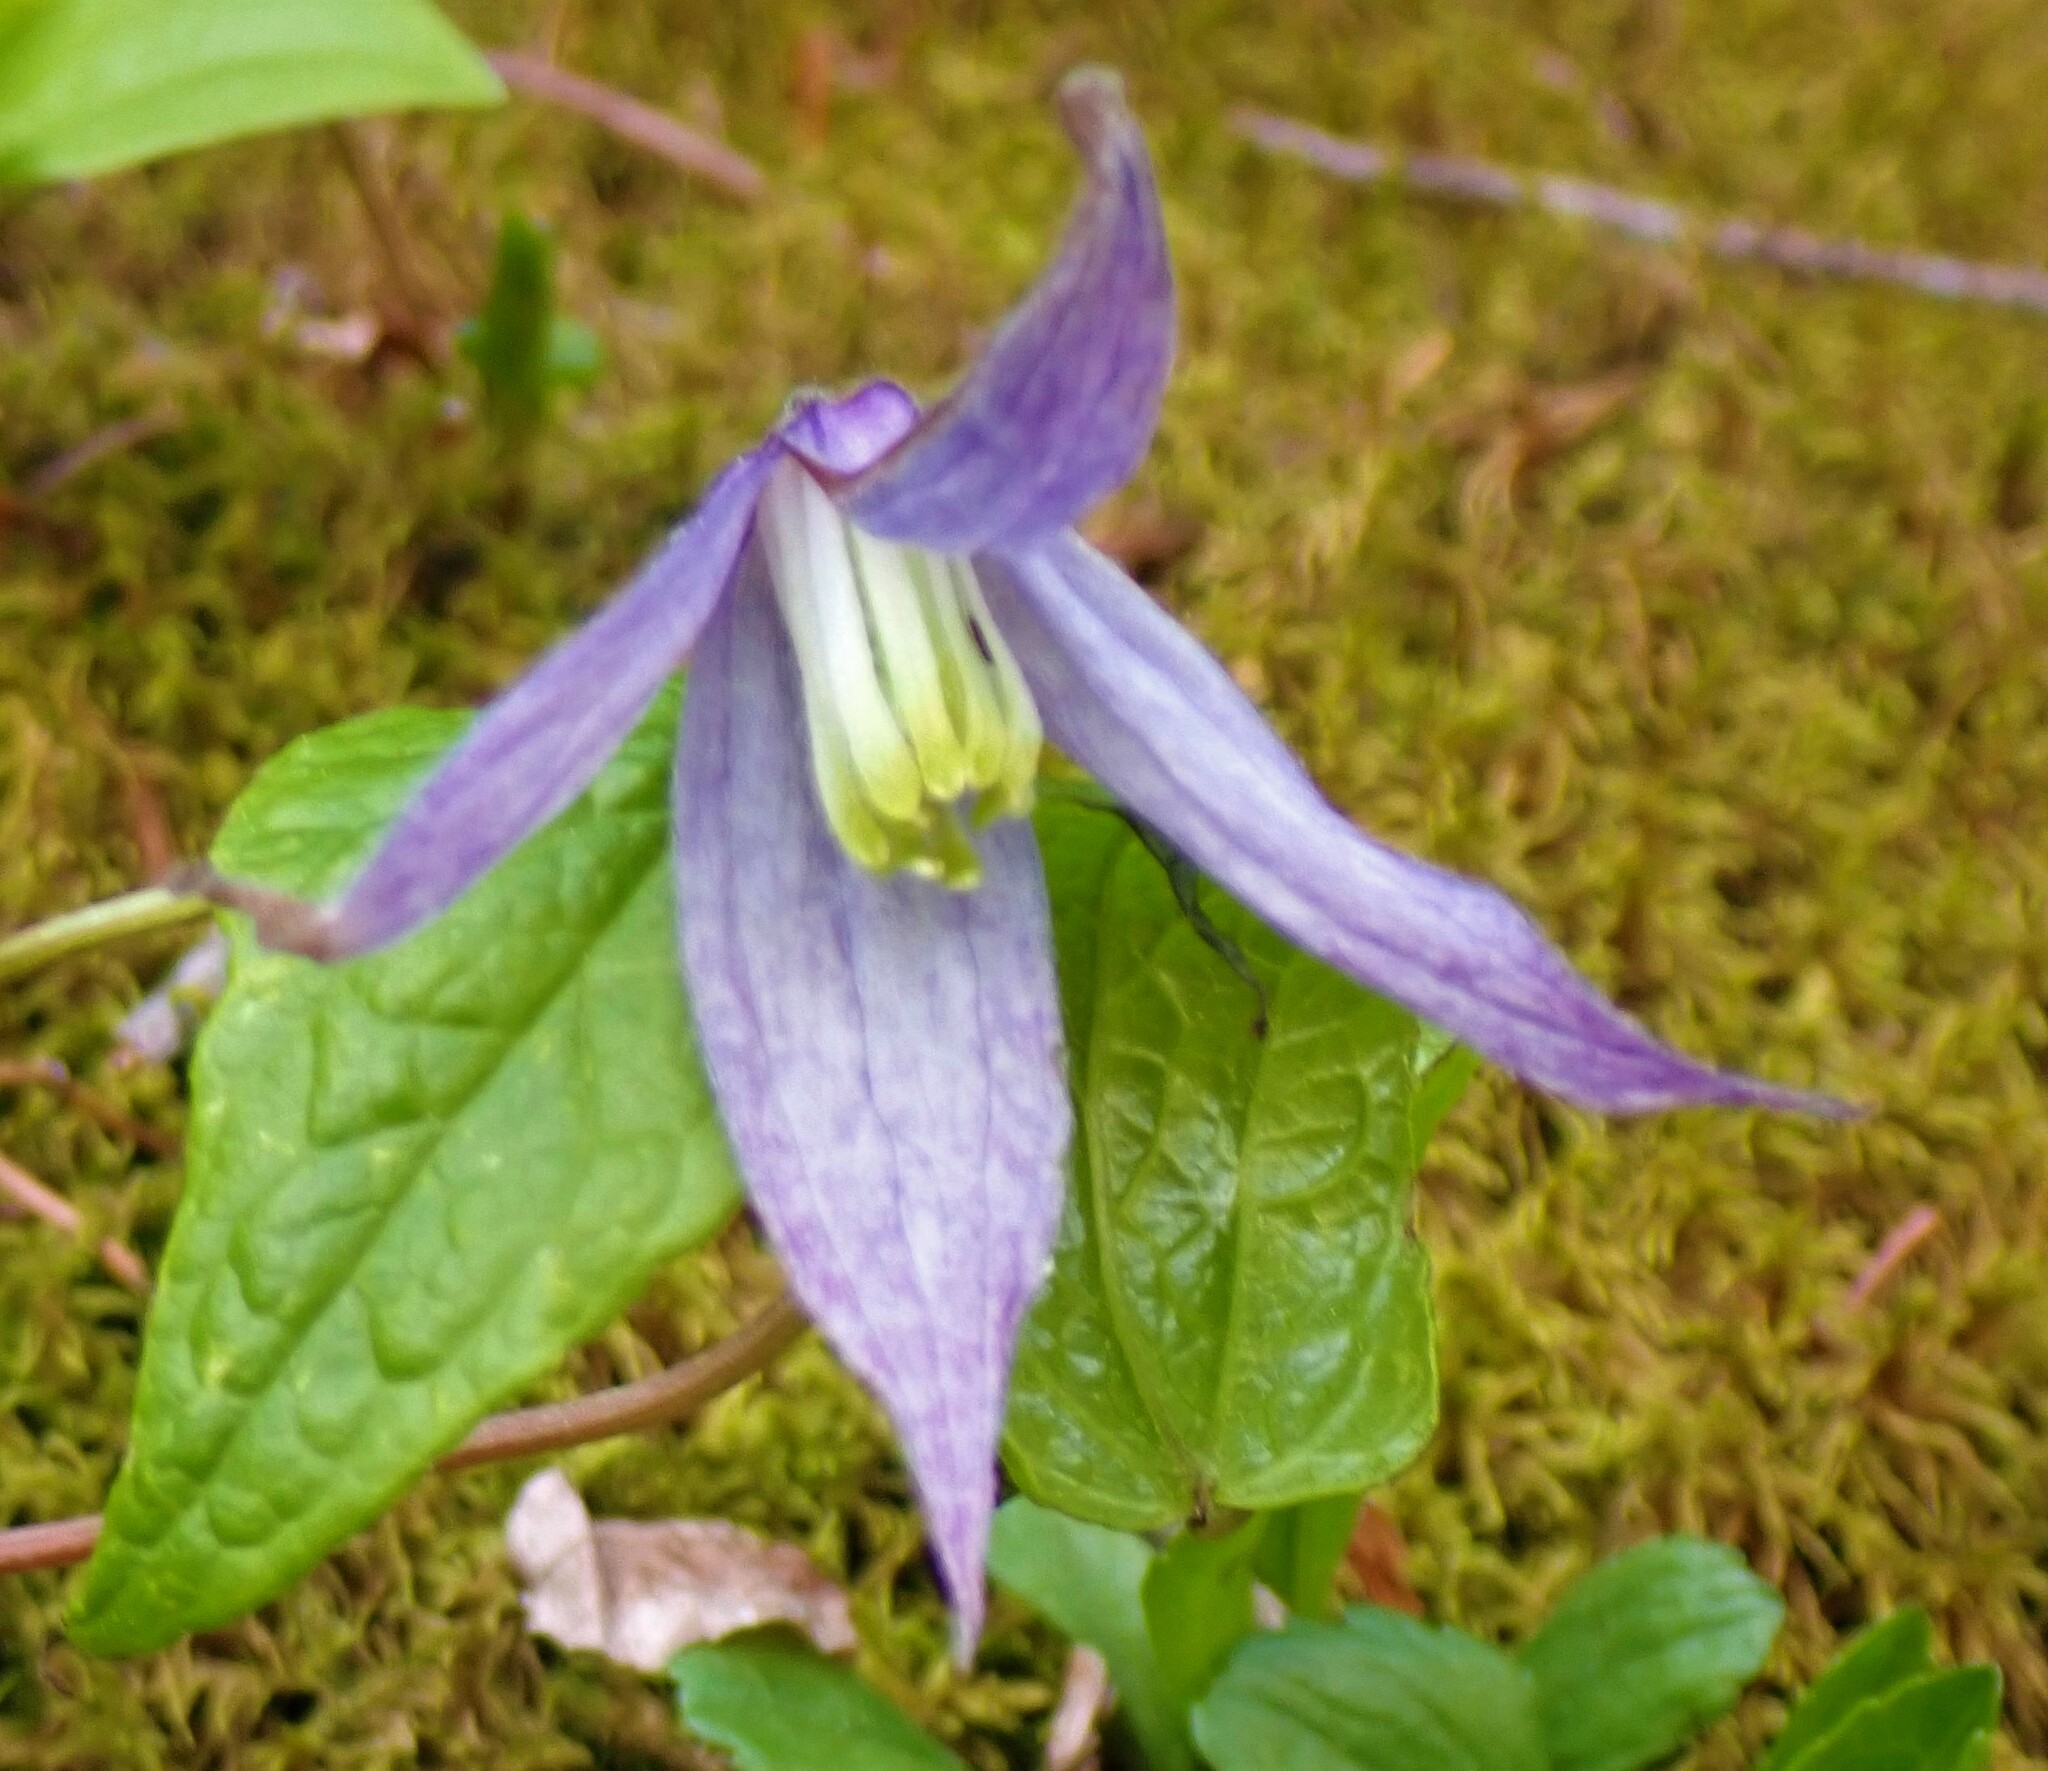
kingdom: Plantae
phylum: Tracheophyta
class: Magnoliopsida
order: Ranunculales
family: Ranunculaceae
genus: Clematis
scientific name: Clematis occidentalis
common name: Purple clematis
